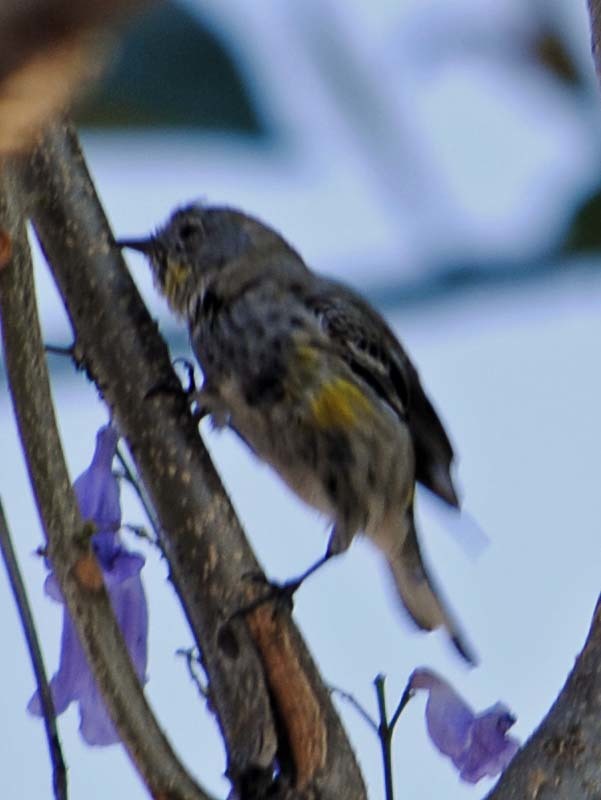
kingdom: Animalia
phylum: Chordata
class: Aves
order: Passeriformes
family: Parulidae
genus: Setophaga
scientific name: Setophaga coronata
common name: Myrtle warbler
